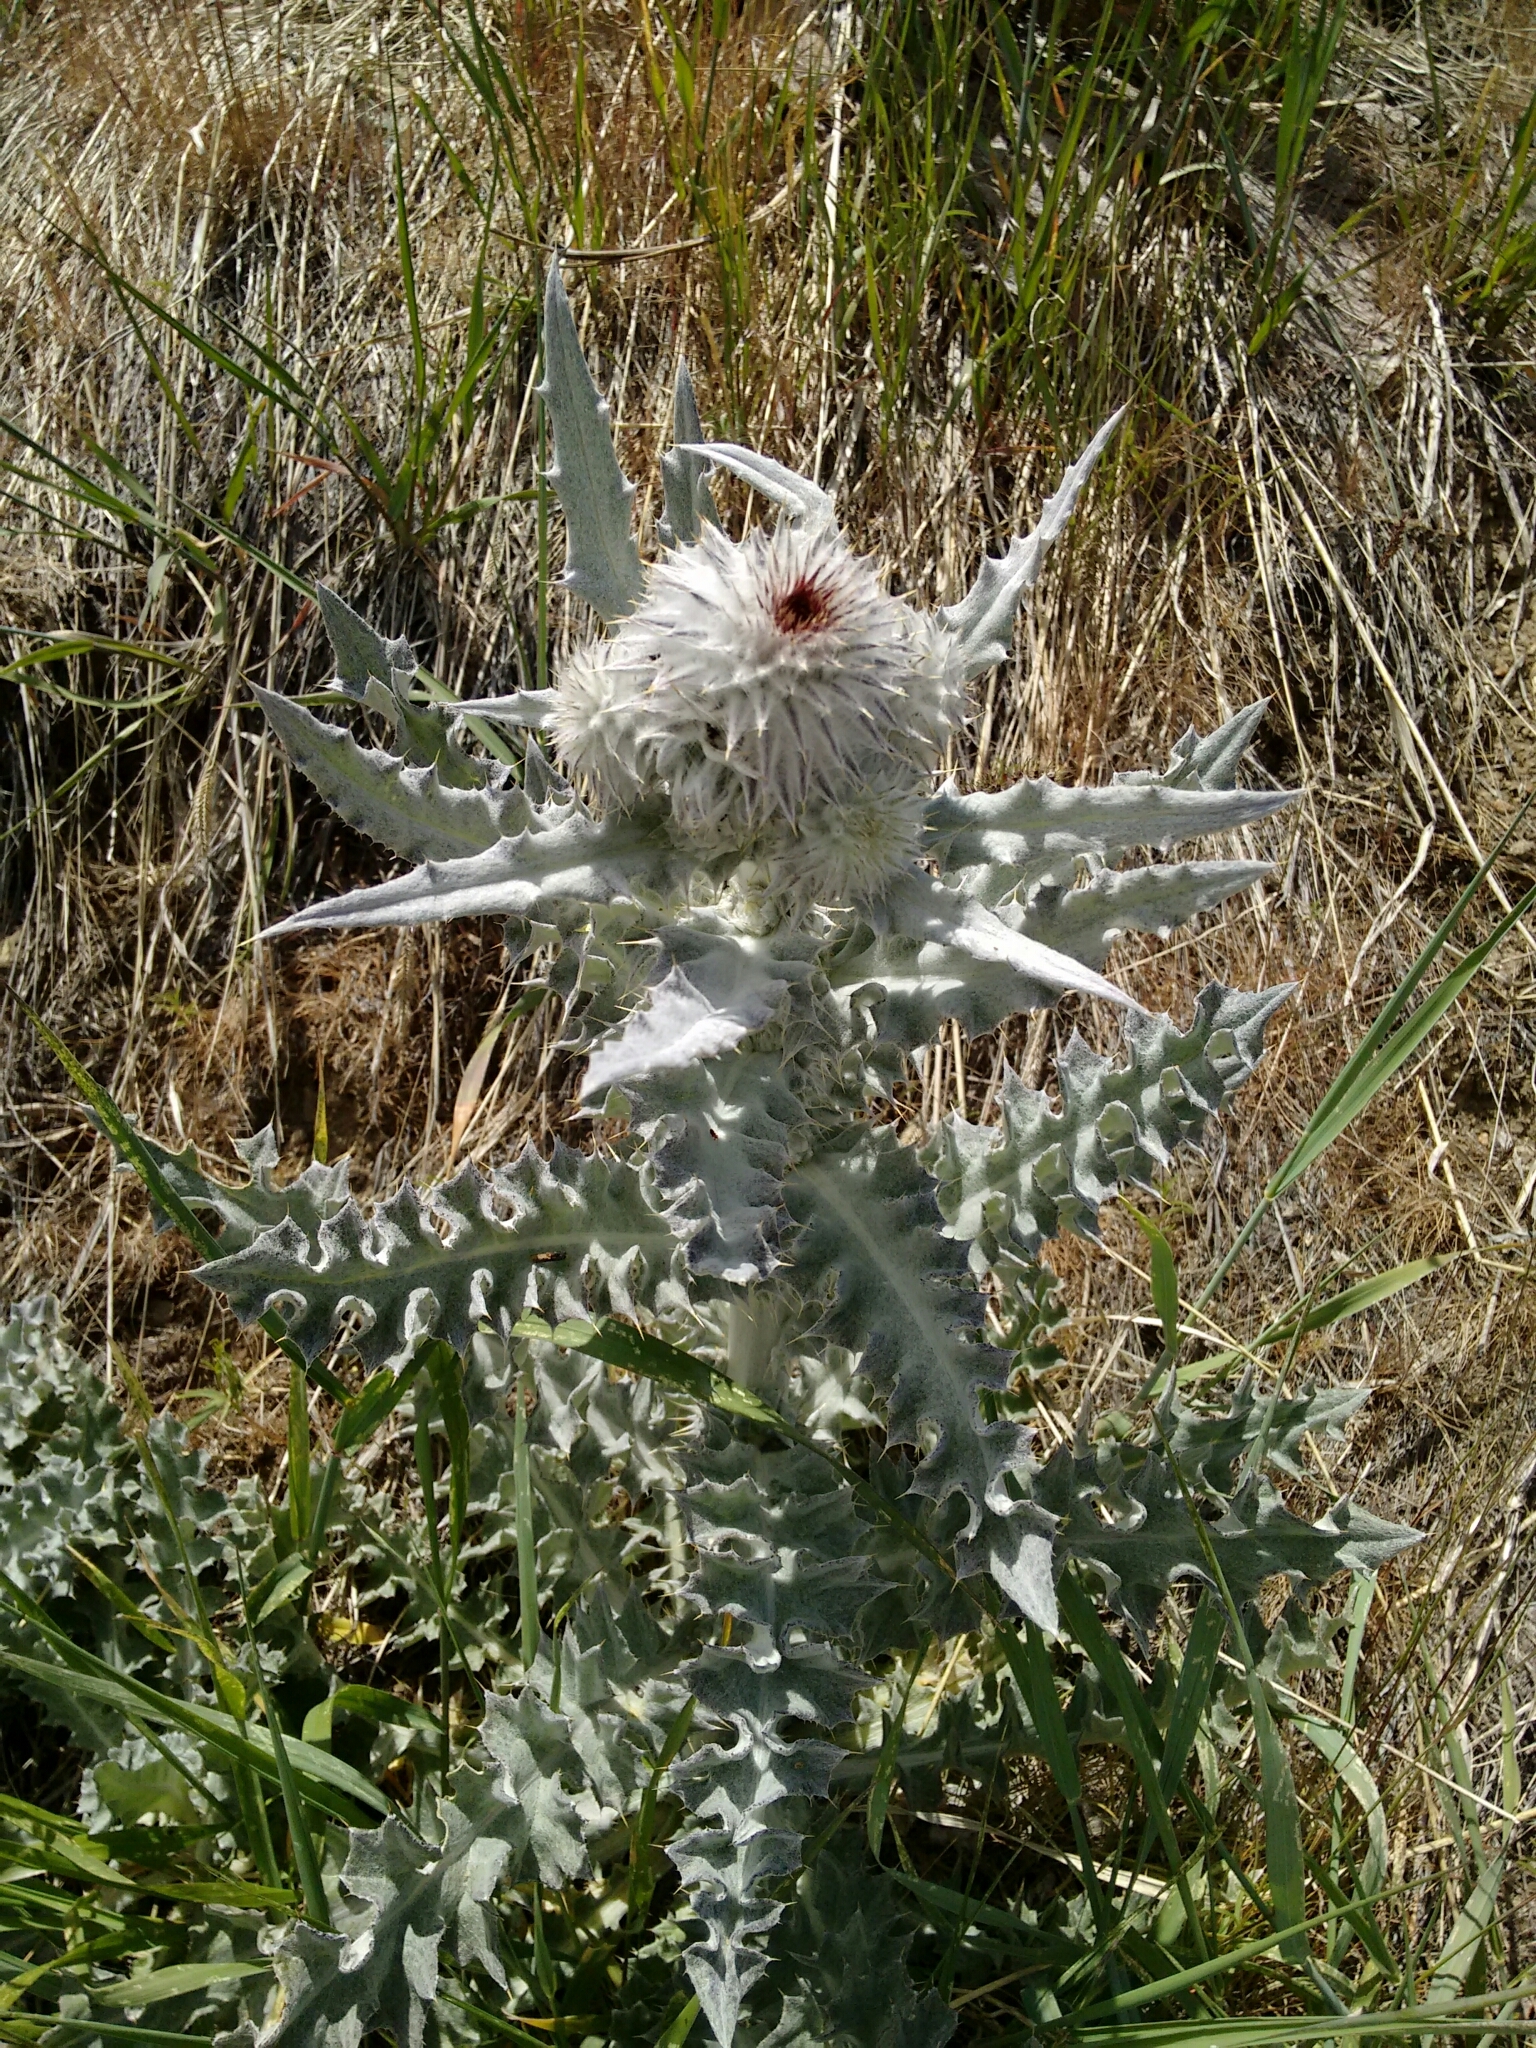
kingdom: Plantae
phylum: Tracheophyta
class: Magnoliopsida
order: Asterales
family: Asteraceae
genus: Cirsium
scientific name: Cirsium occidentale
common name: Western thistle
